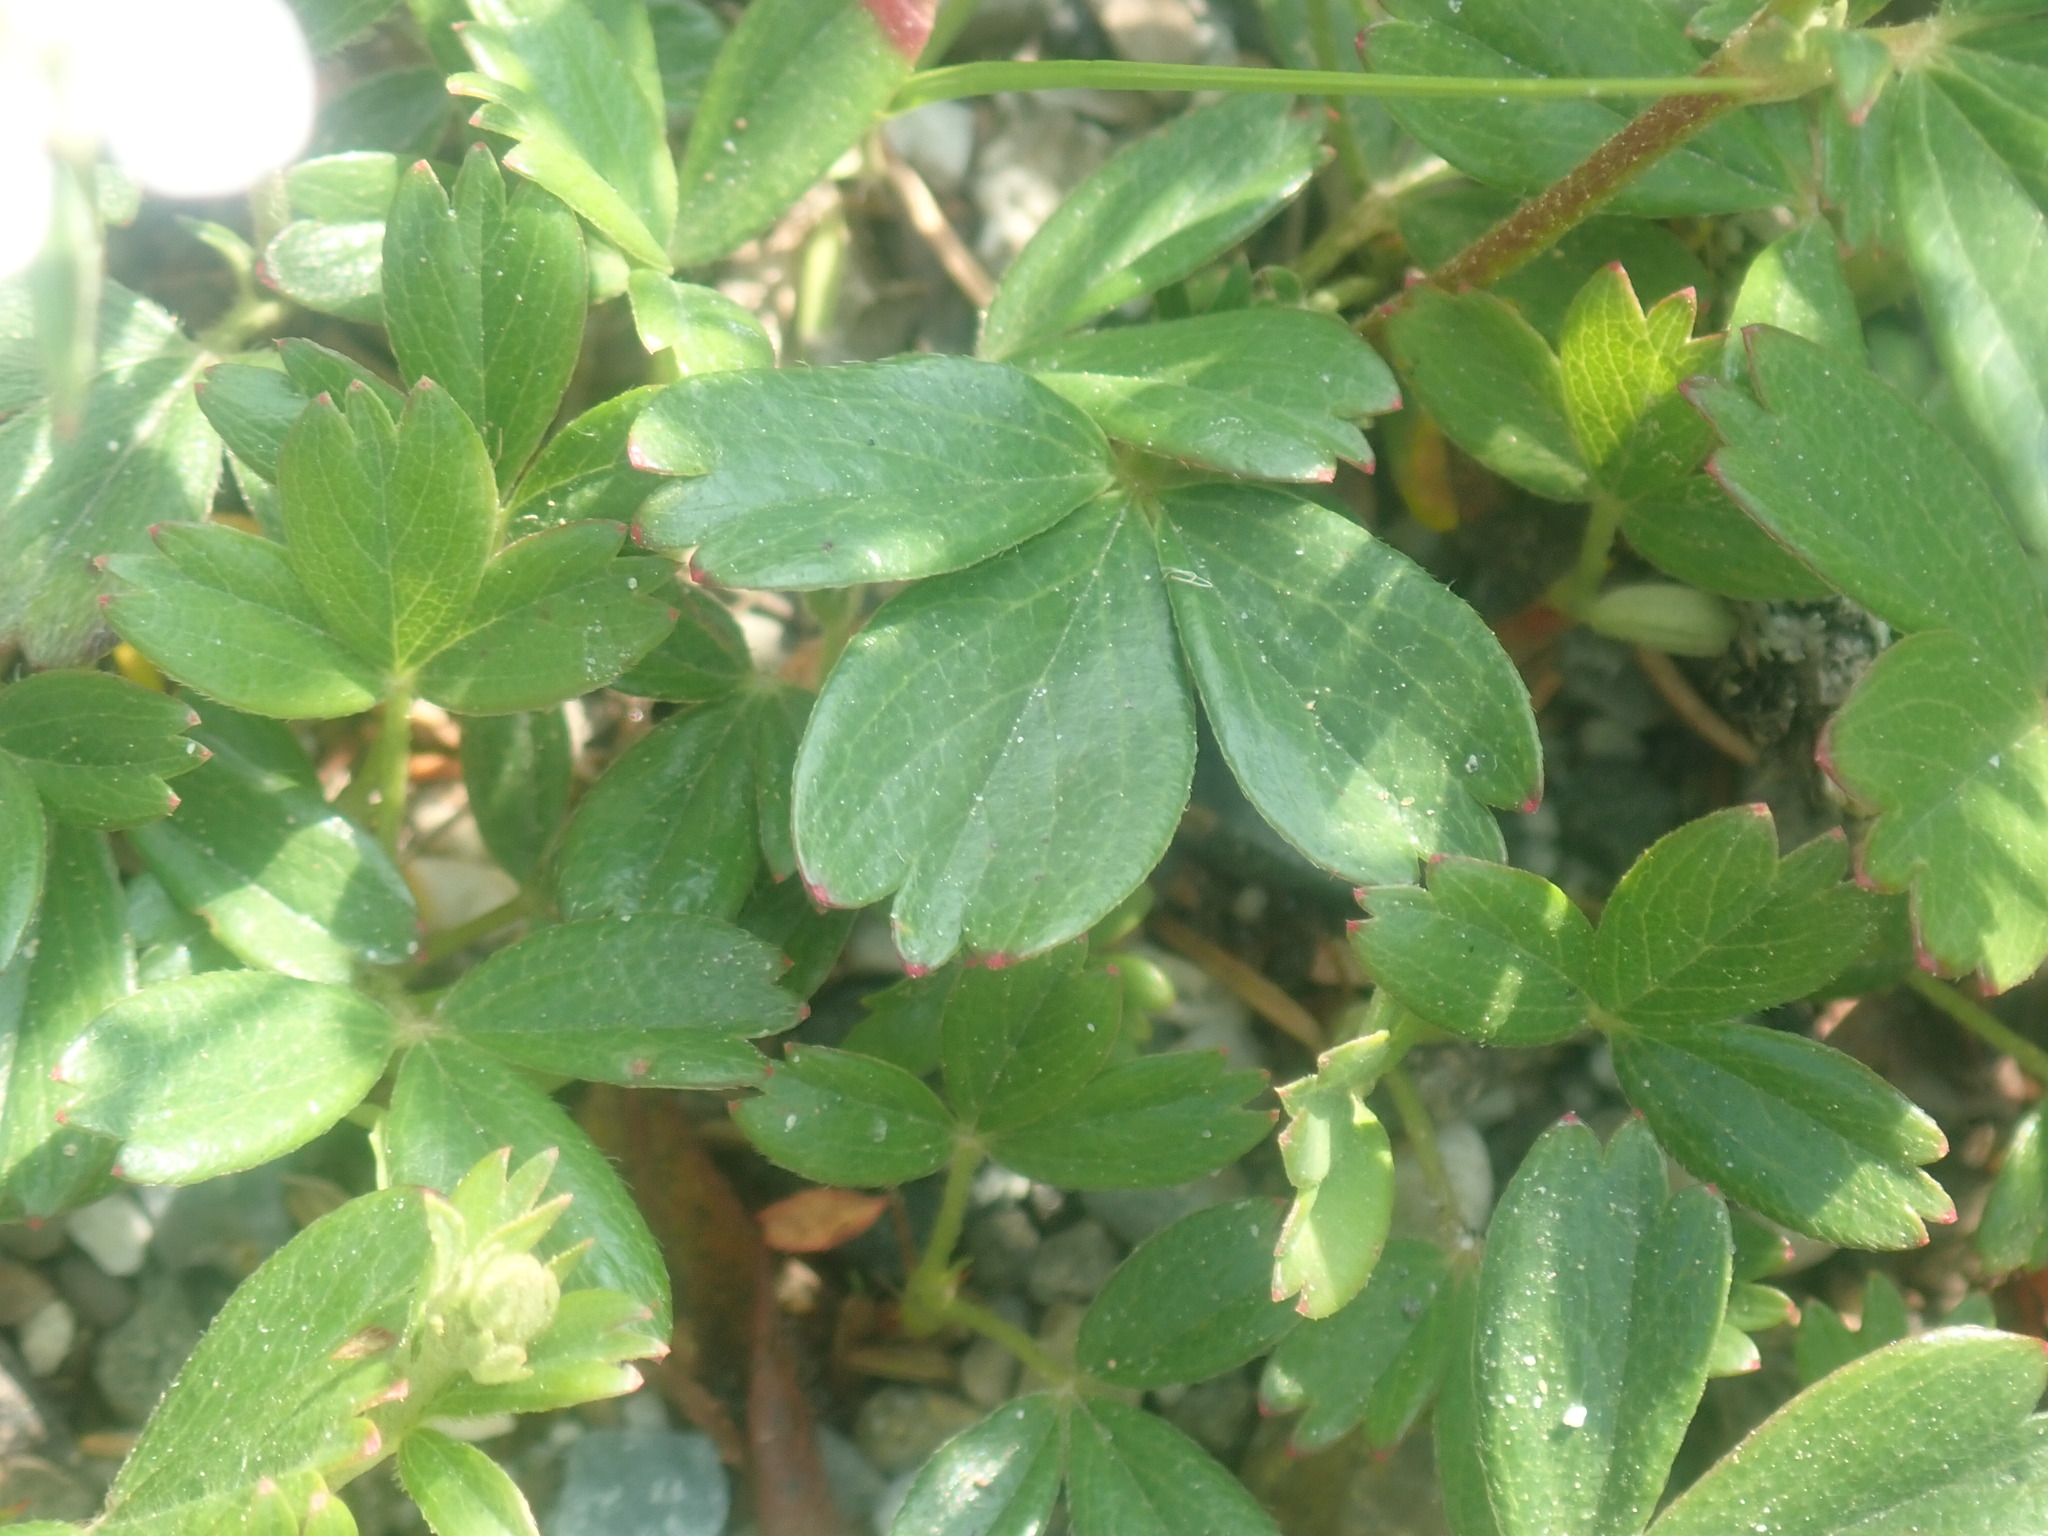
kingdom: Plantae
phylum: Tracheophyta
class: Magnoliopsida
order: Rosales
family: Rosaceae
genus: Sibbaldia
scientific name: Sibbaldia tridentata
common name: Three-toothed cinquefoil
